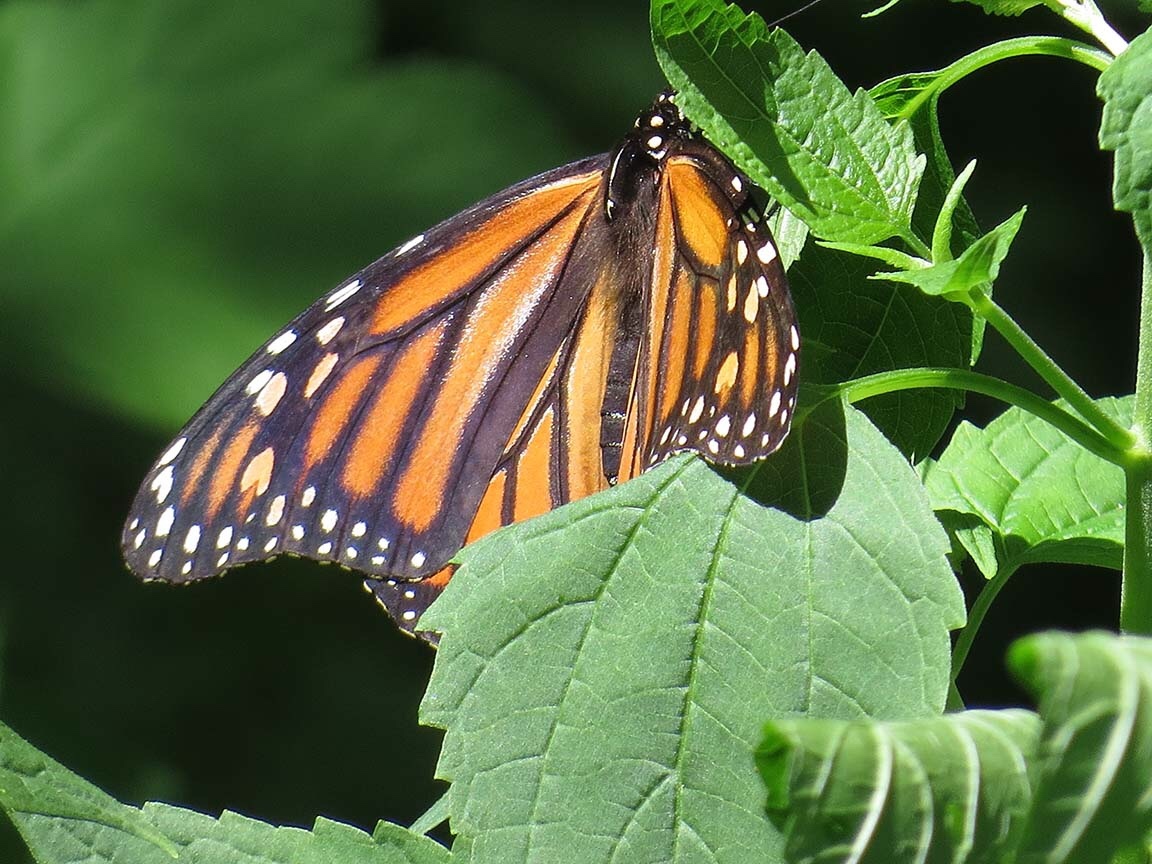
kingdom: Animalia
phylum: Arthropoda
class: Insecta
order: Lepidoptera
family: Nymphalidae
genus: Danaus
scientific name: Danaus plexippus
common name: Monarch
